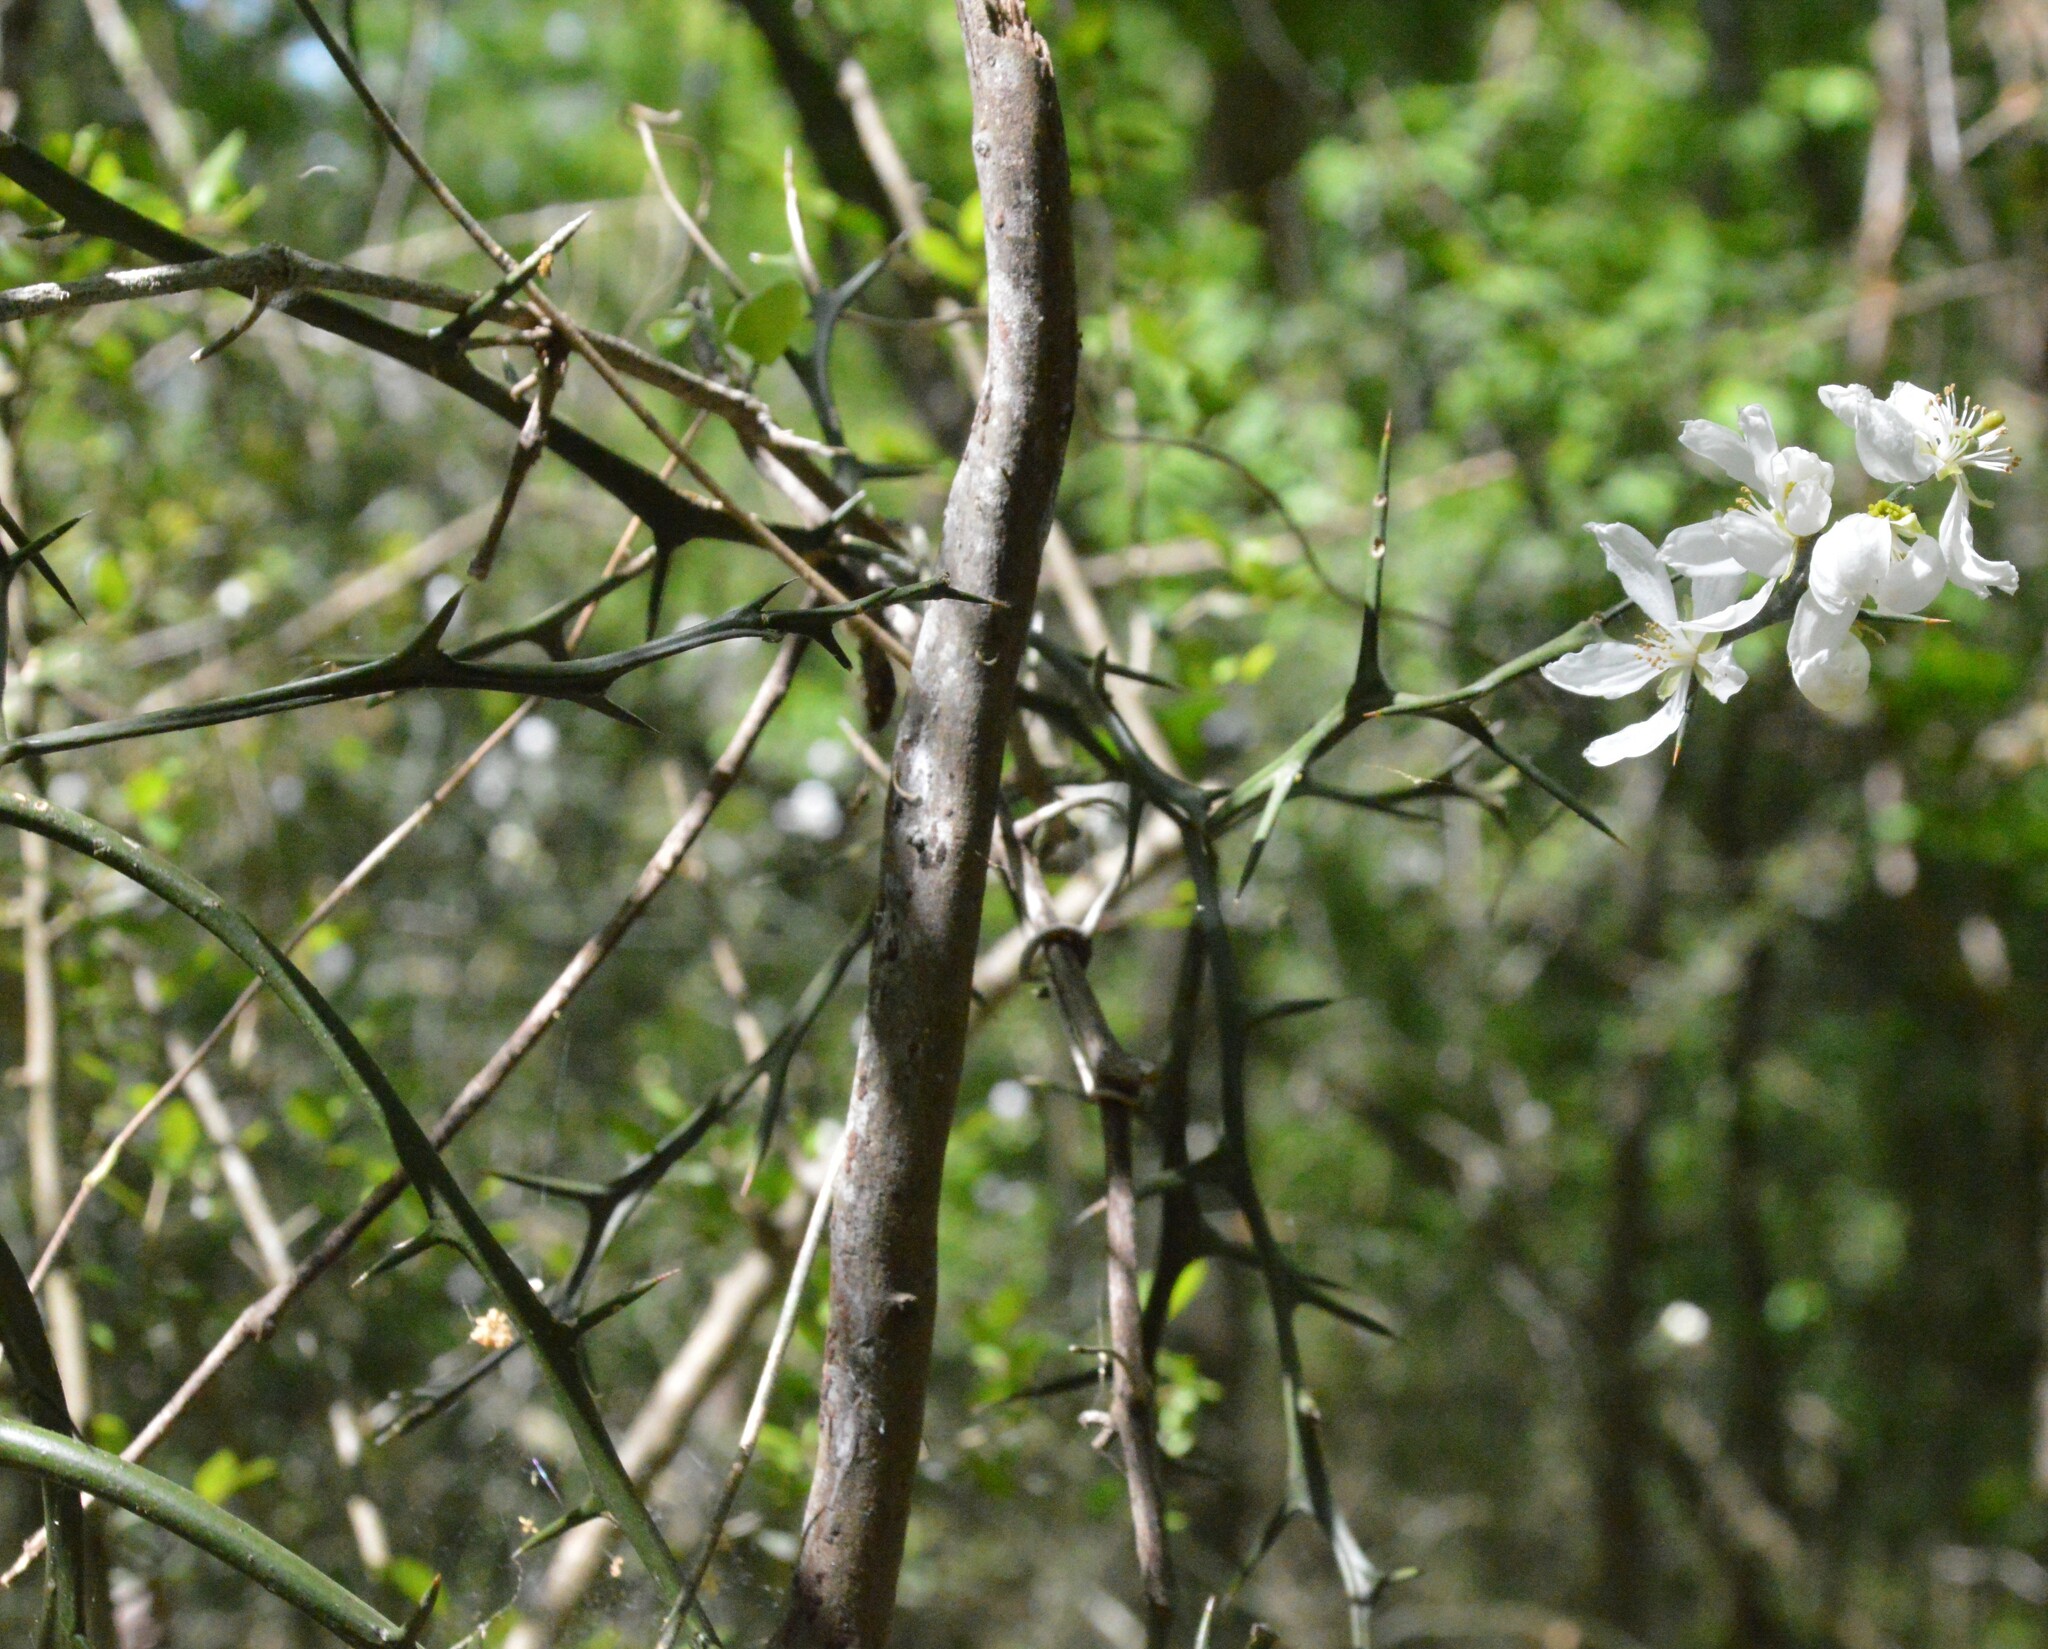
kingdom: Plantae
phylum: Tracheophyta
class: Magnoliopsida
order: Sapindales
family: Rutaceae
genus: Citrus
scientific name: Citrus trifoliata
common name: Japanese bitter-orange
